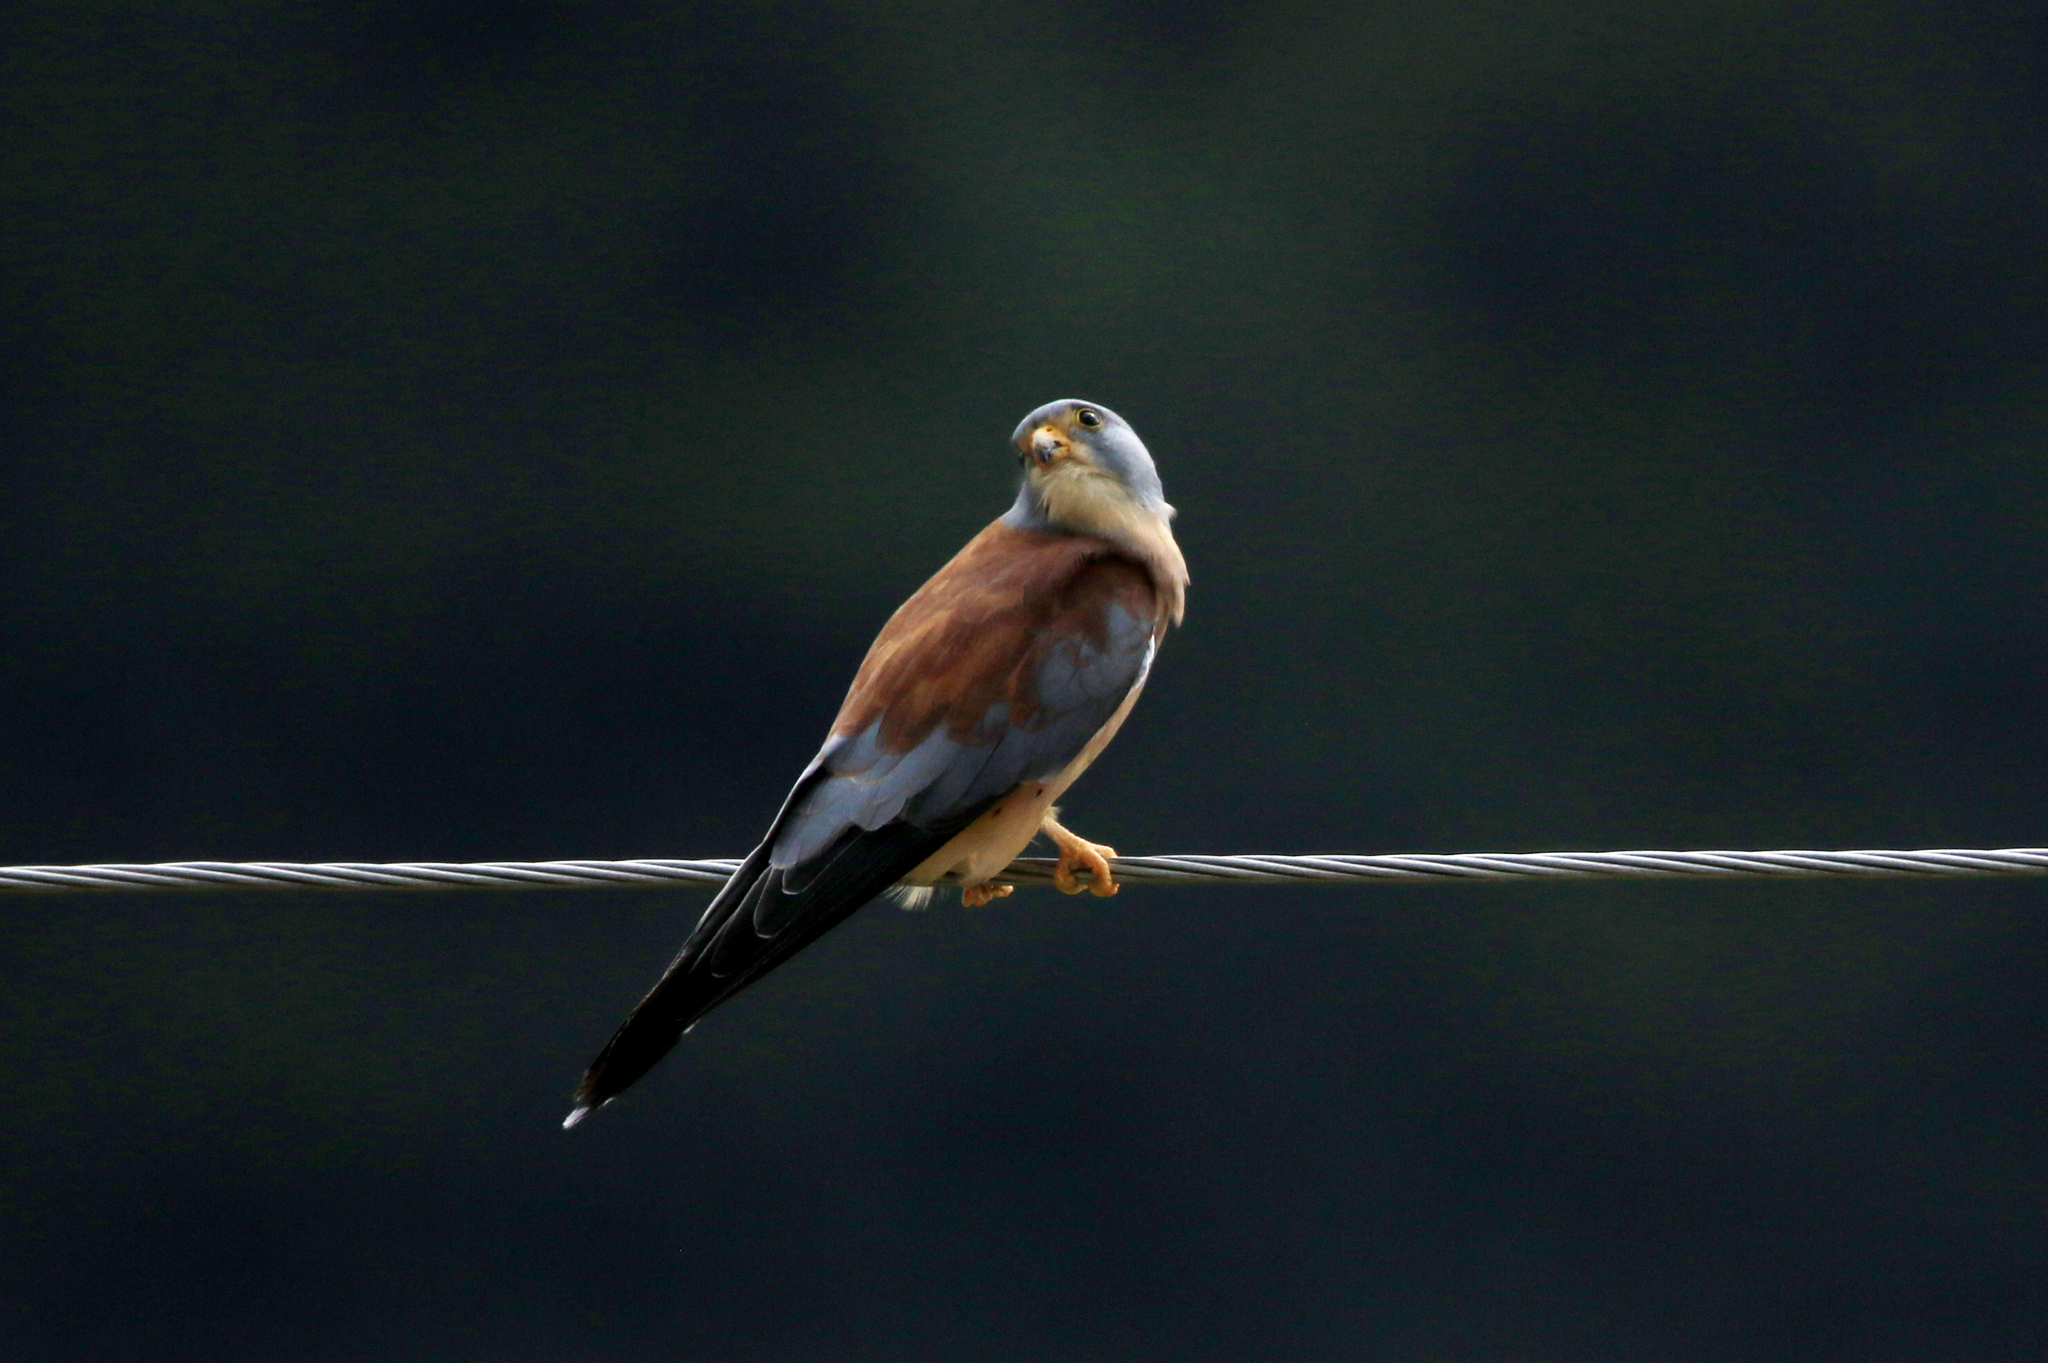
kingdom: Animalia
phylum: Chordata
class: Aves
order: Falconiformes
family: Falconidae
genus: Falco
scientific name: Falco naumanni
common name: Lesser kestrel
